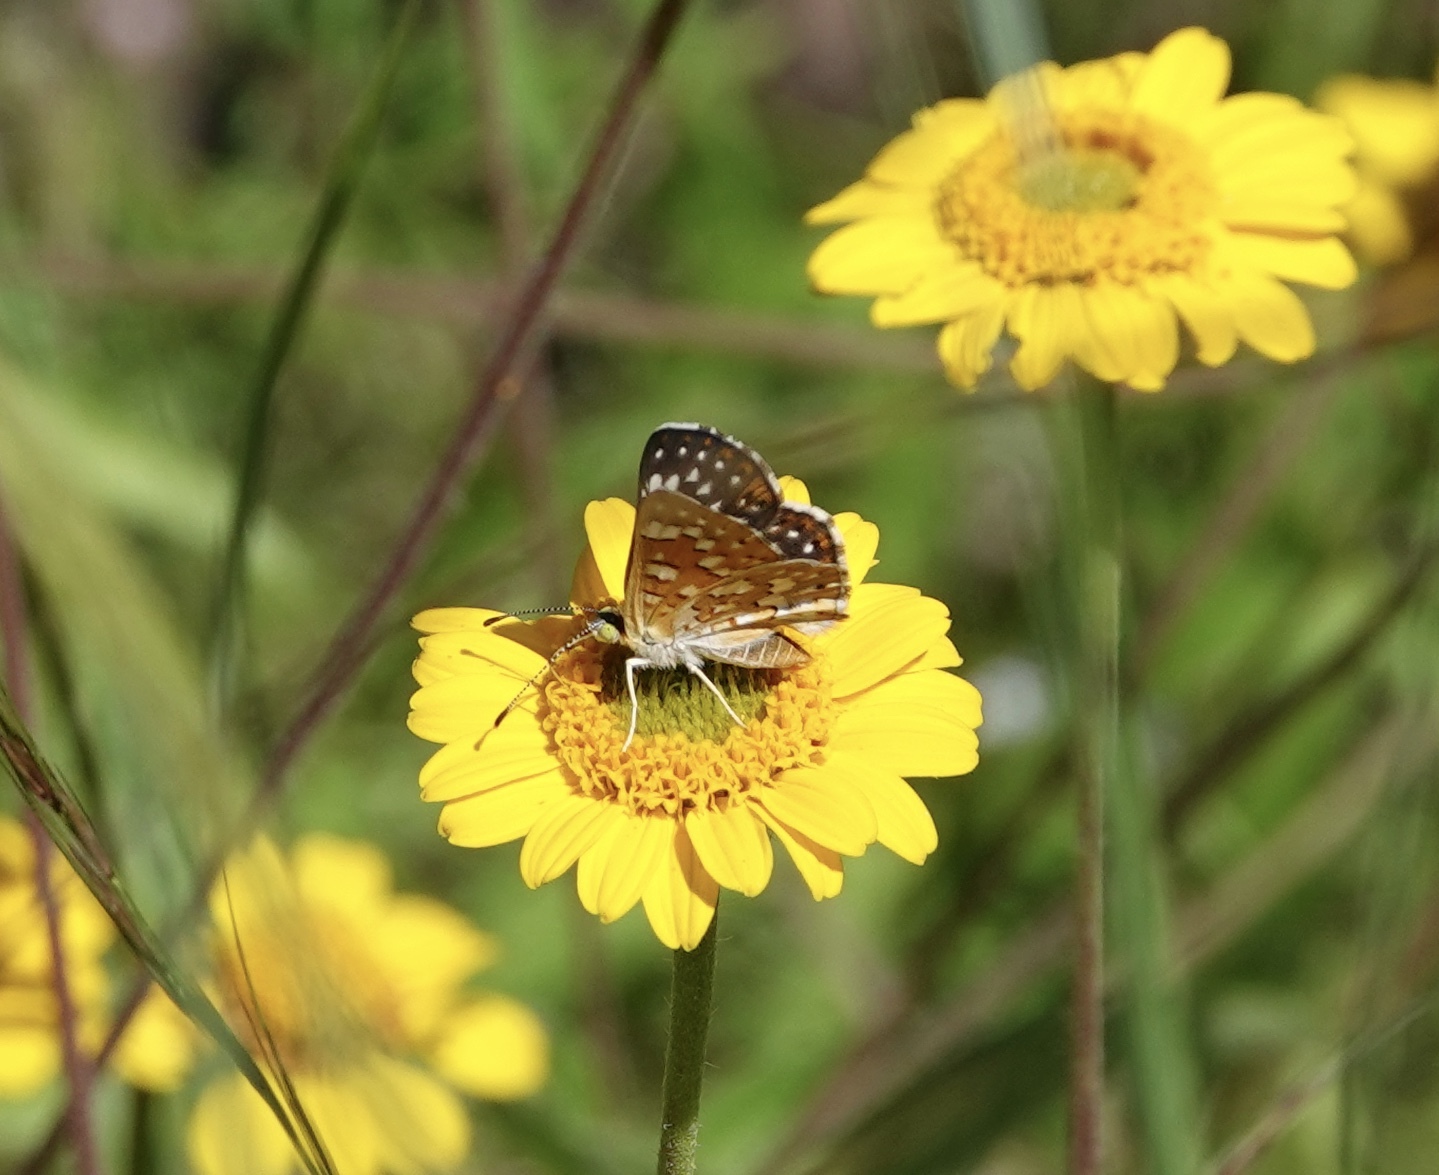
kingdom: Animalia
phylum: Arthropoda
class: Insecta
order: Lepidoptera
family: Riodinidae
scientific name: Riodinidae
